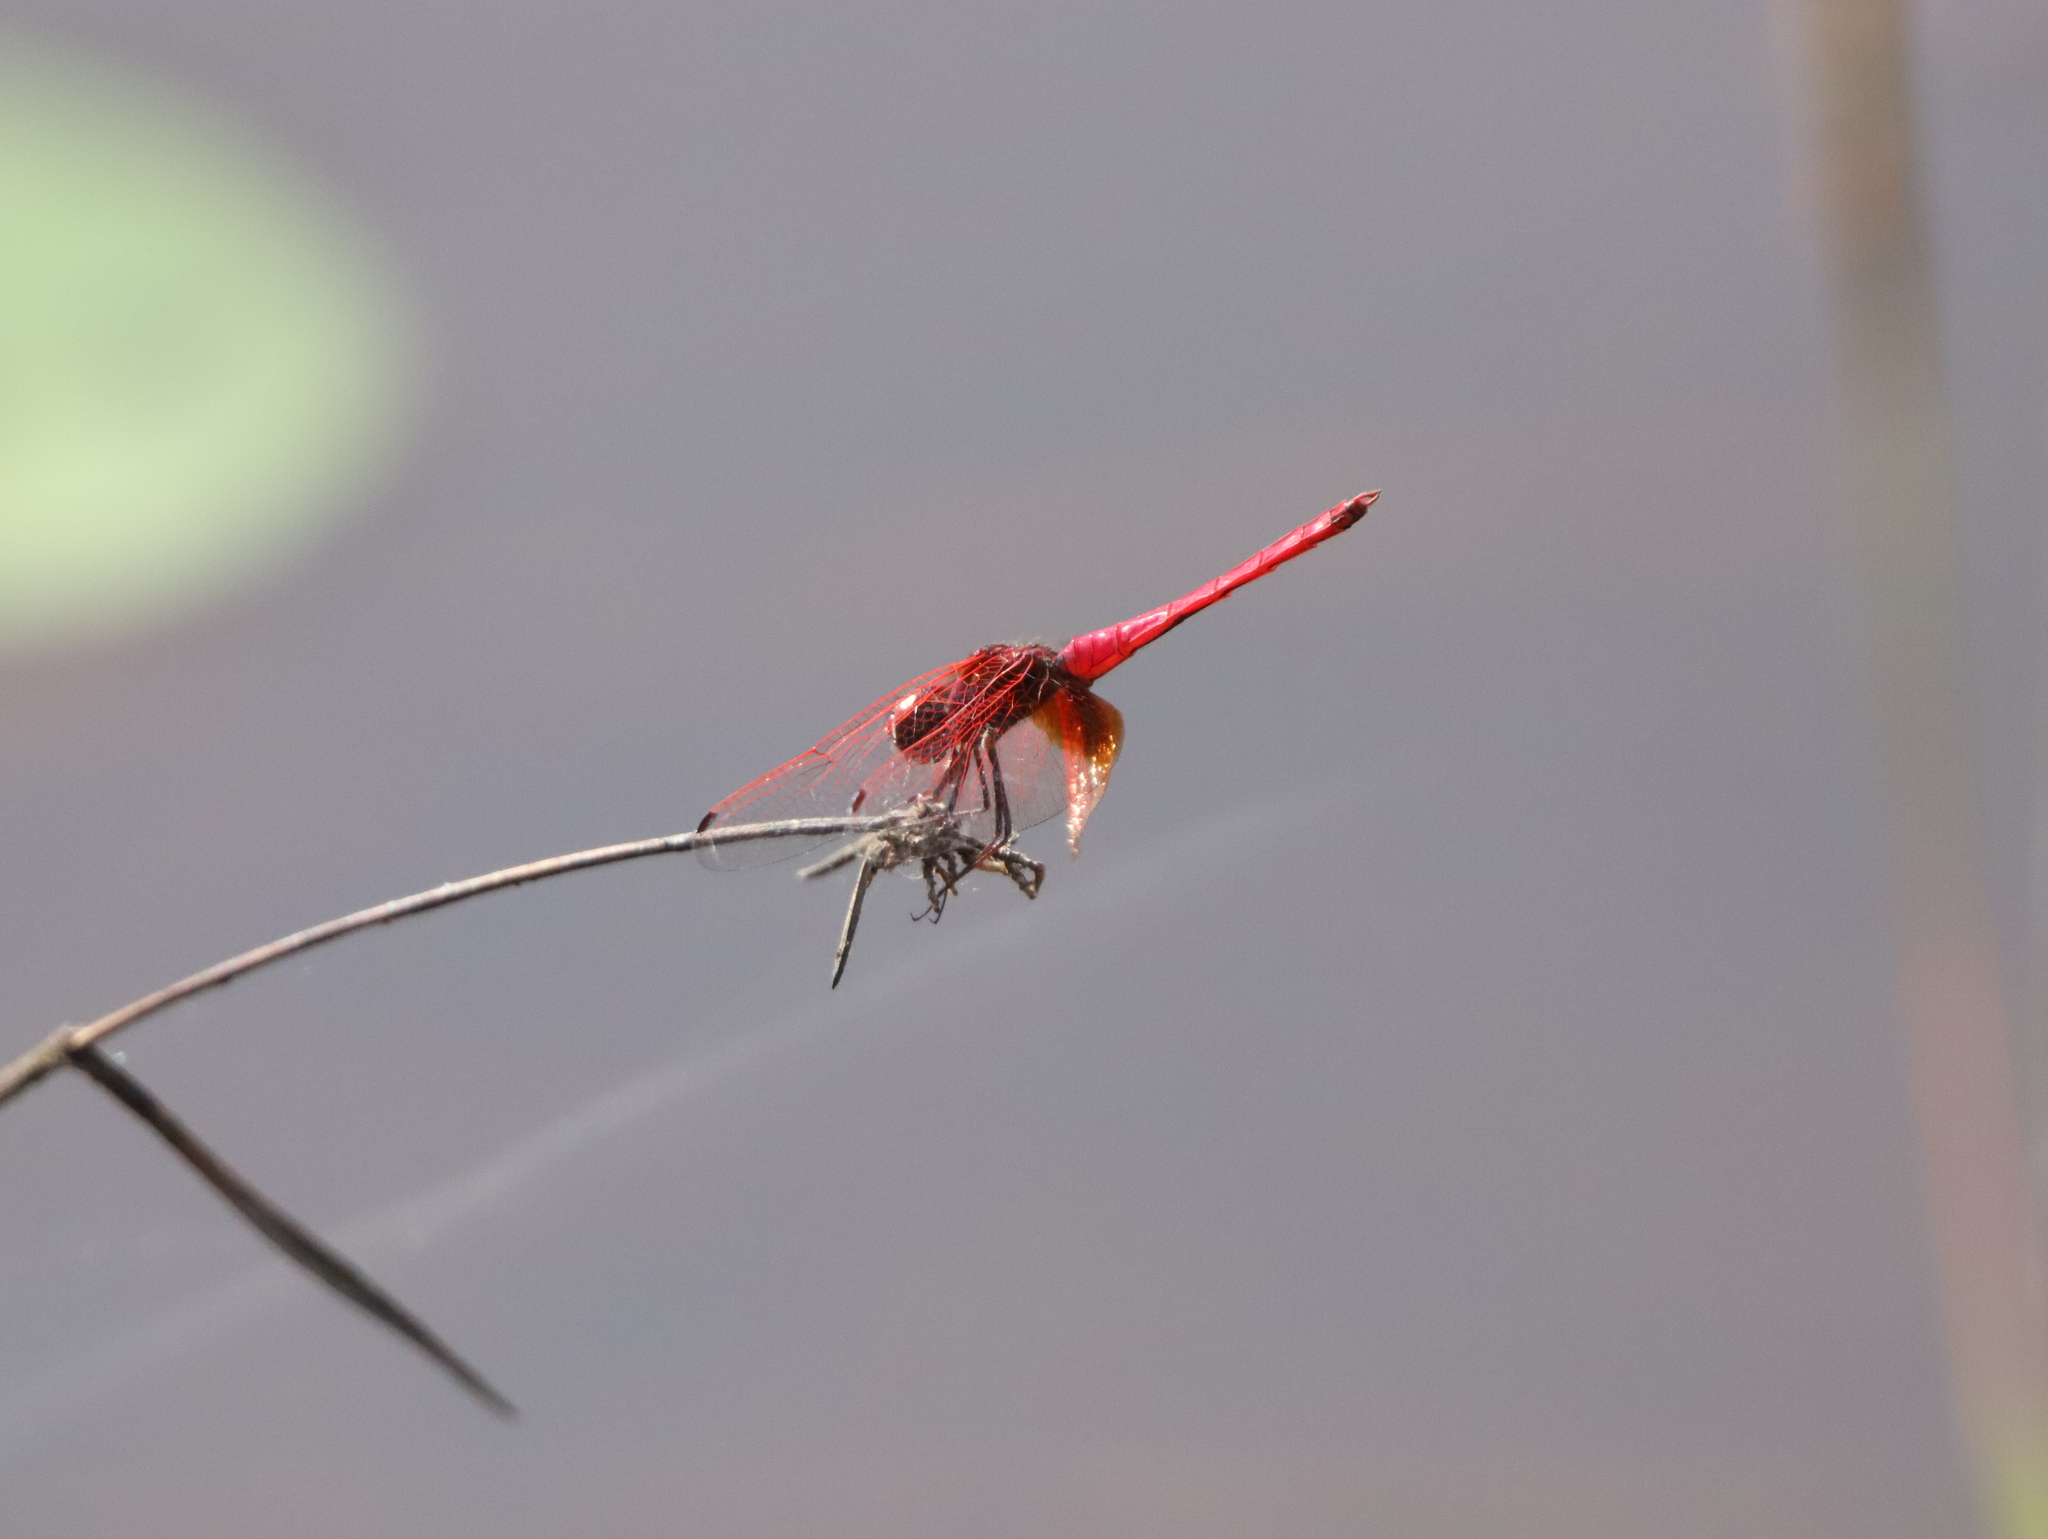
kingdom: Animalia
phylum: Arthropoda
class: Insecta
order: Odonata
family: Libellulidae
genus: Trithemis
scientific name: Trithemis aurora
